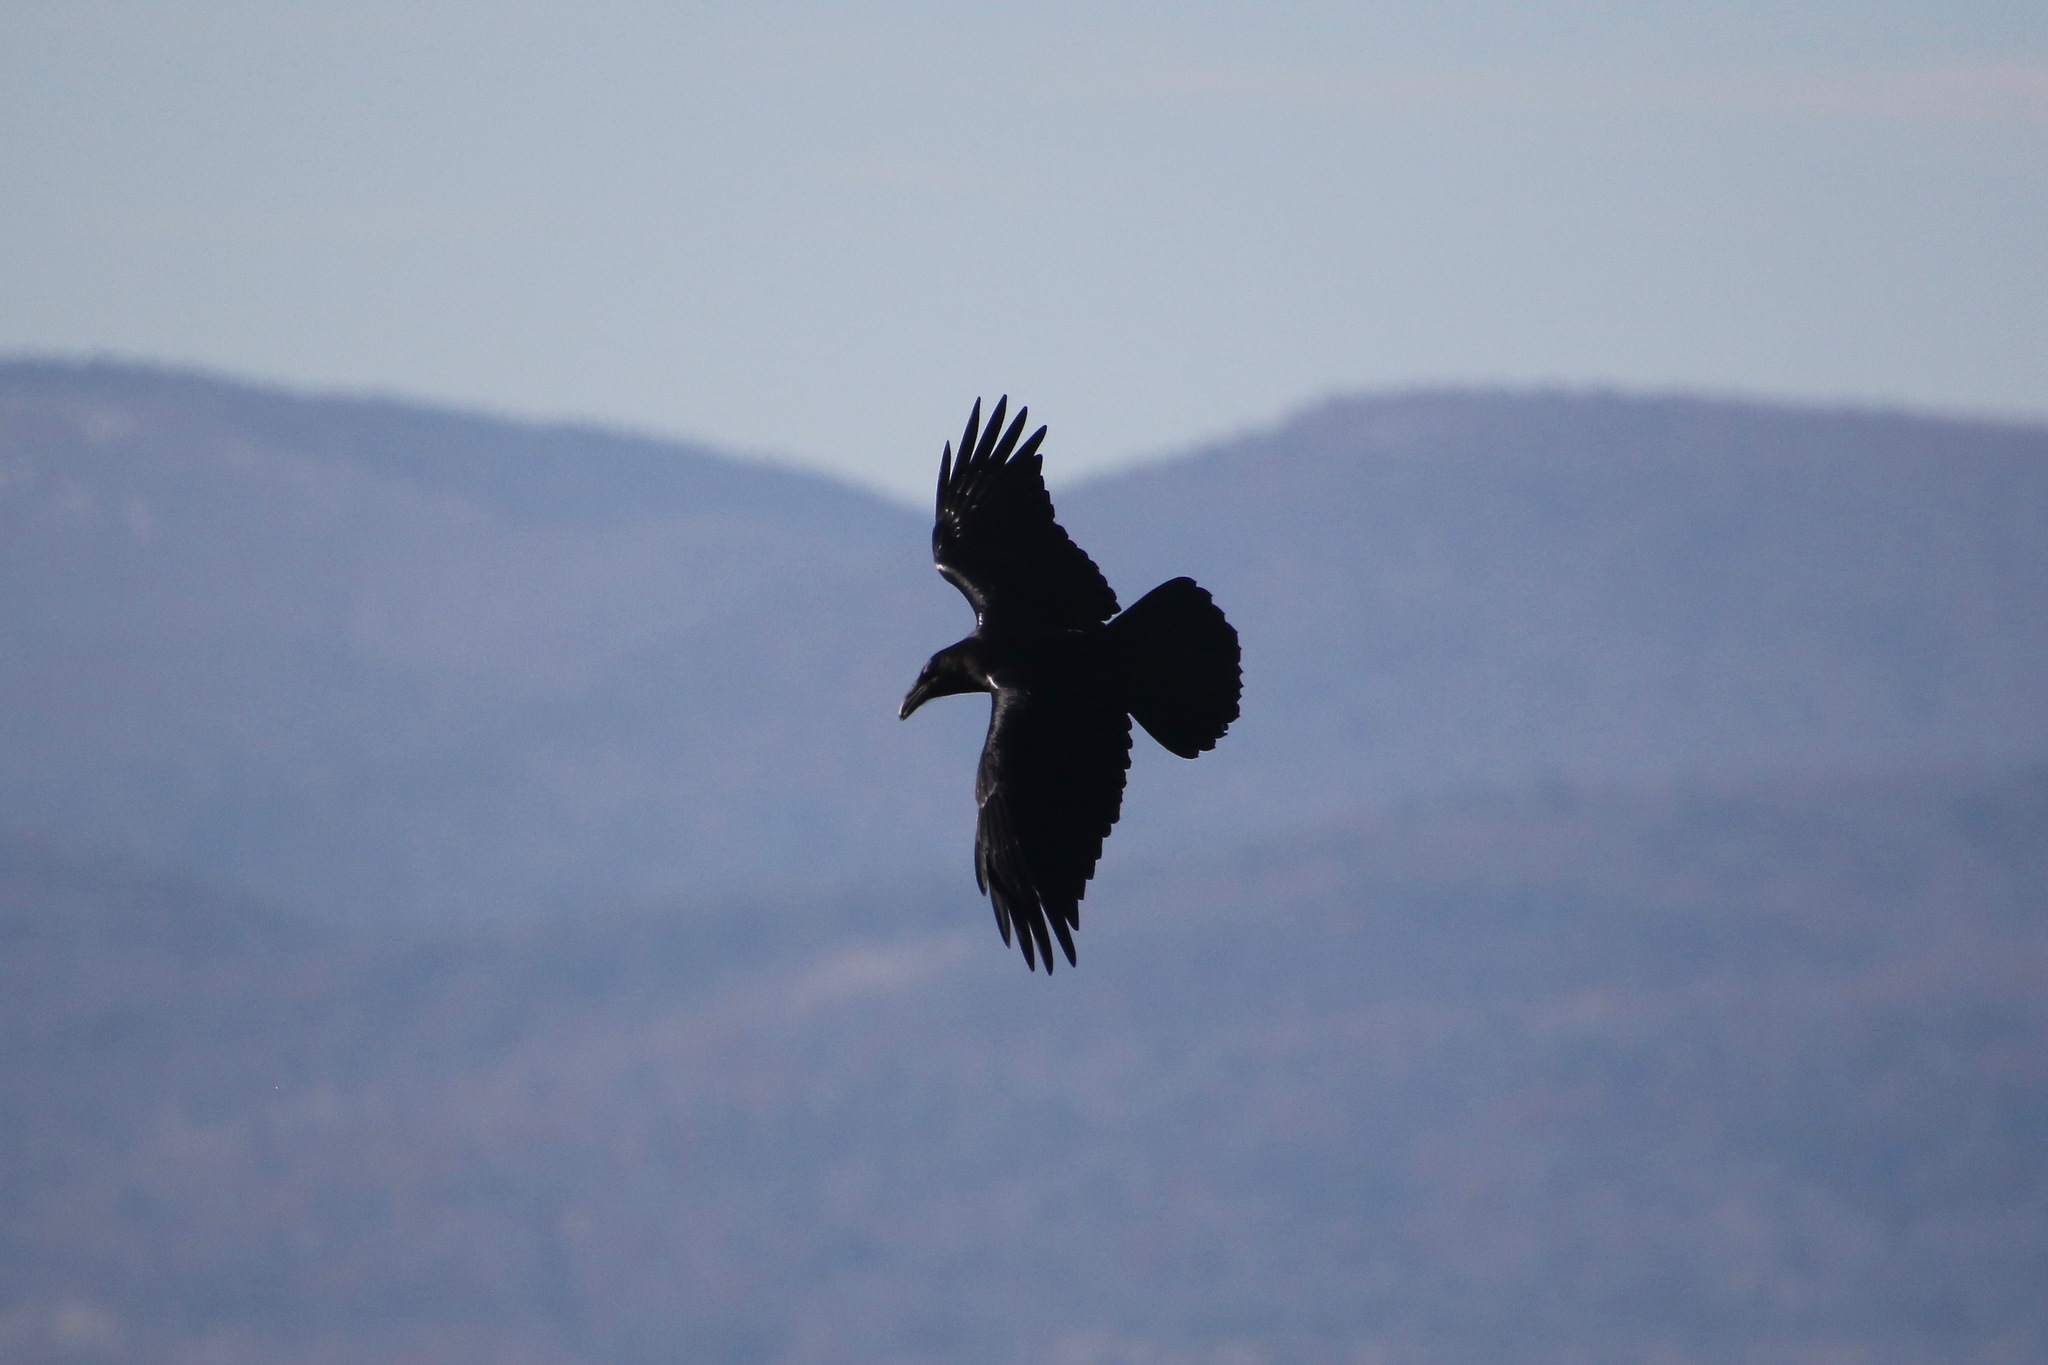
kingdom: Animalia
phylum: Chordata
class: Aves
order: Passeriformes
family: Corvidae
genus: Corvus
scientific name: Corvus corax
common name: Common raven
